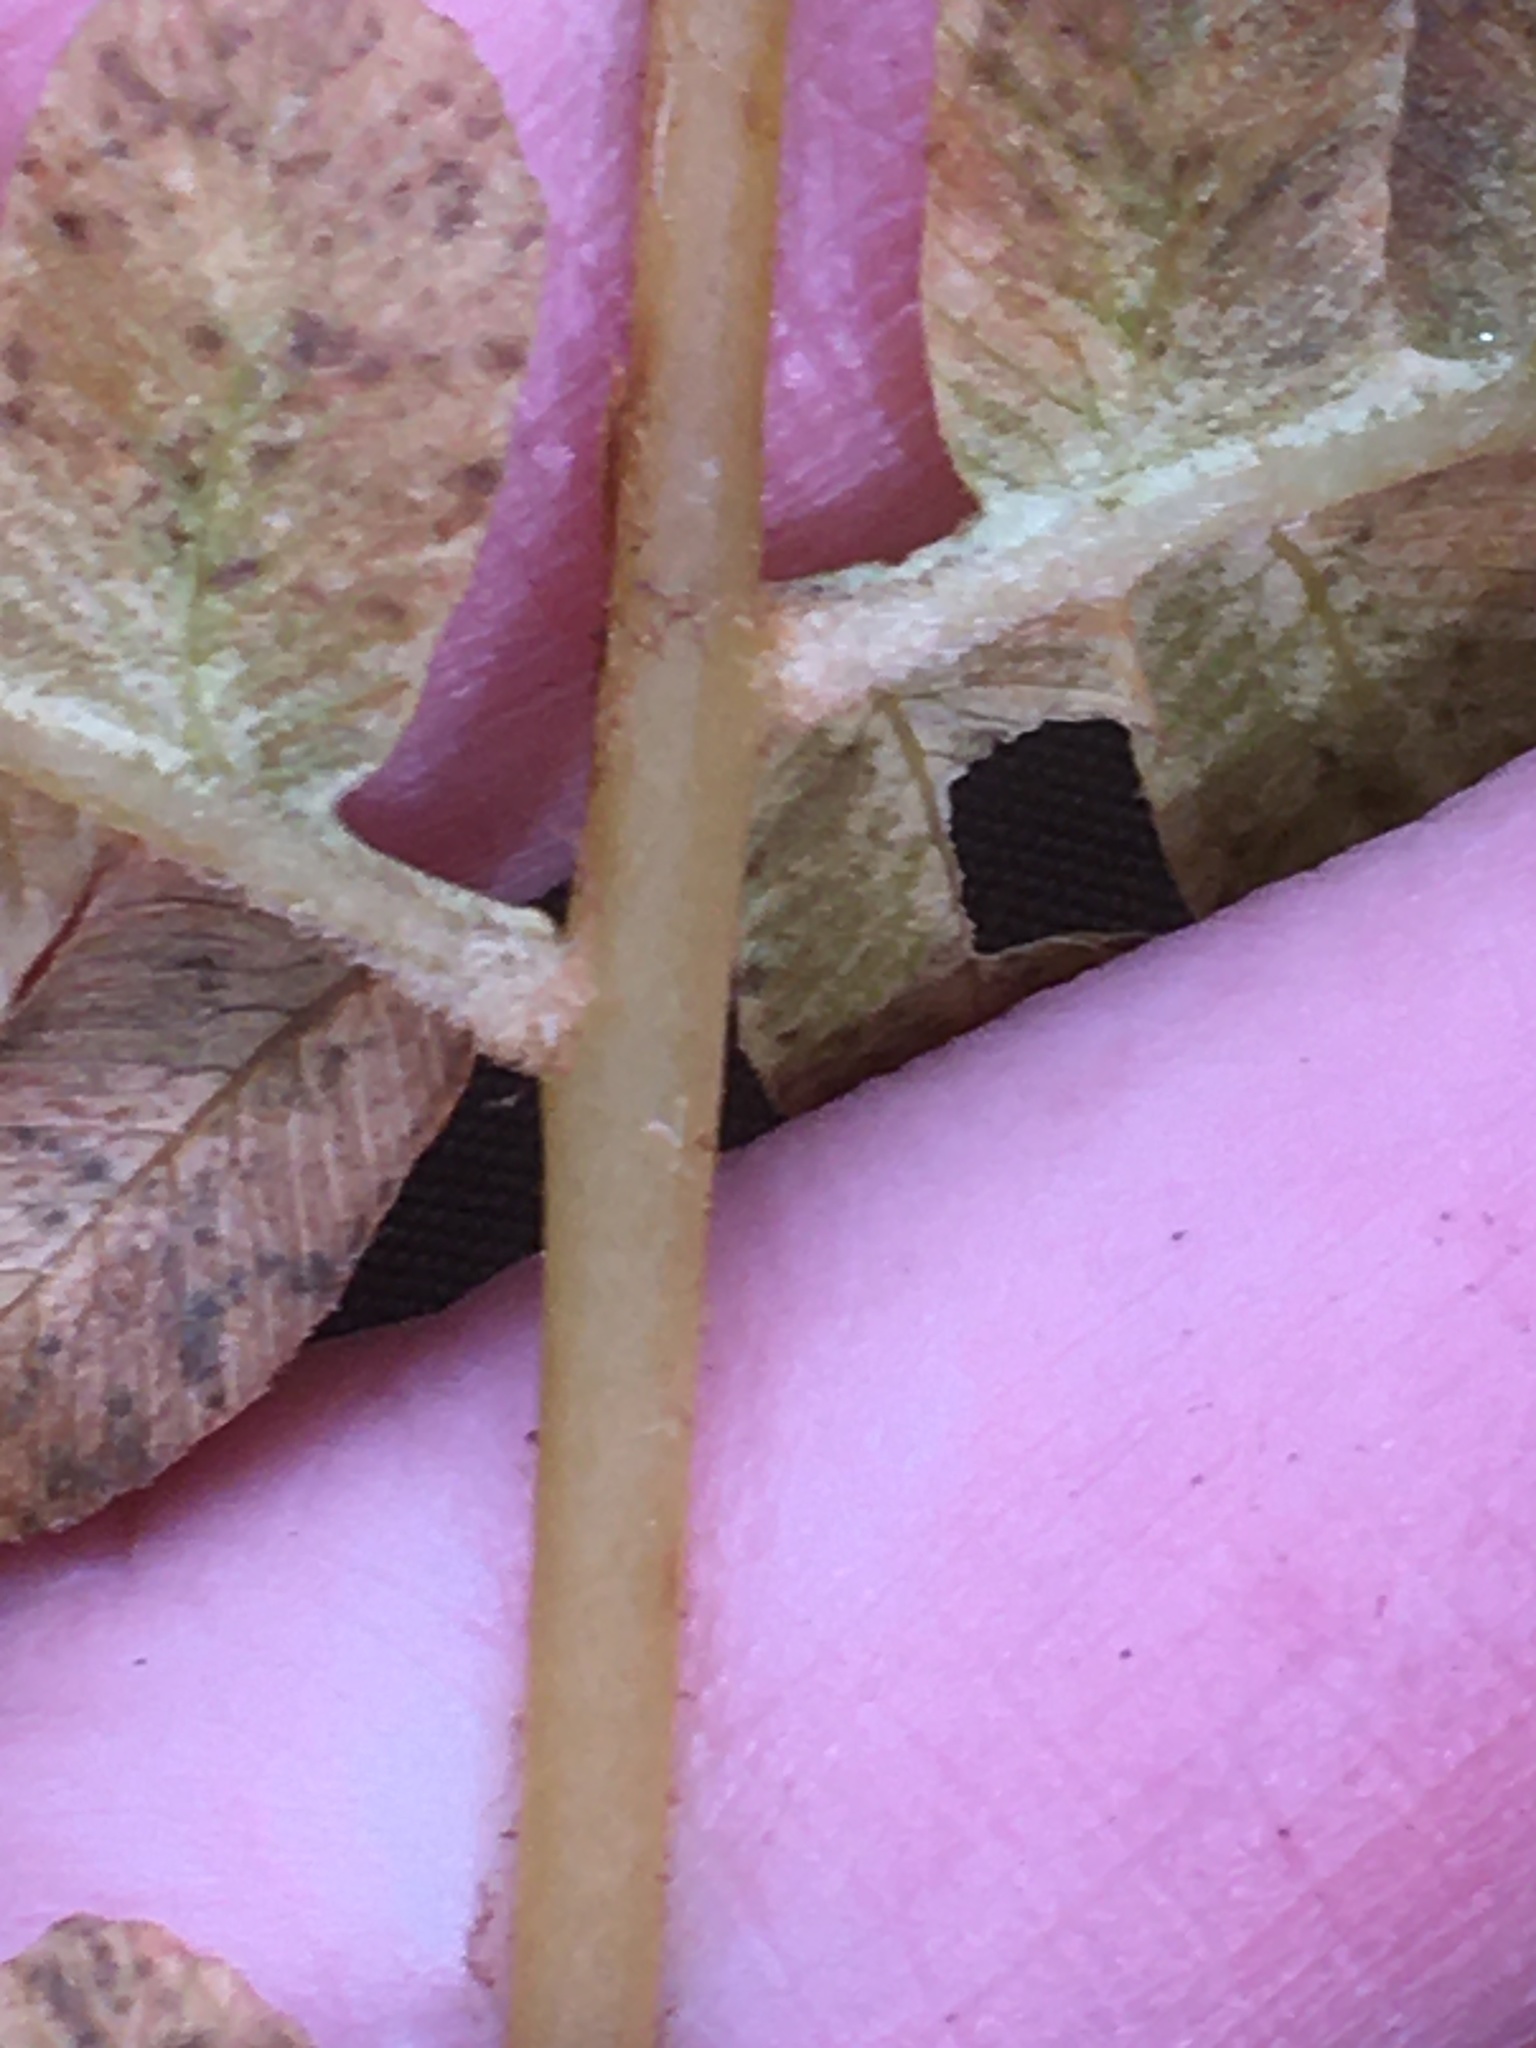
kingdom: Plantae
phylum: Tracheophyta
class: Polypodiopsida
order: Osmundales
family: Osmundaceae
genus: Osmundastrum
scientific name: Osmundastrum cinnamomeum
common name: Cinnamon fern
